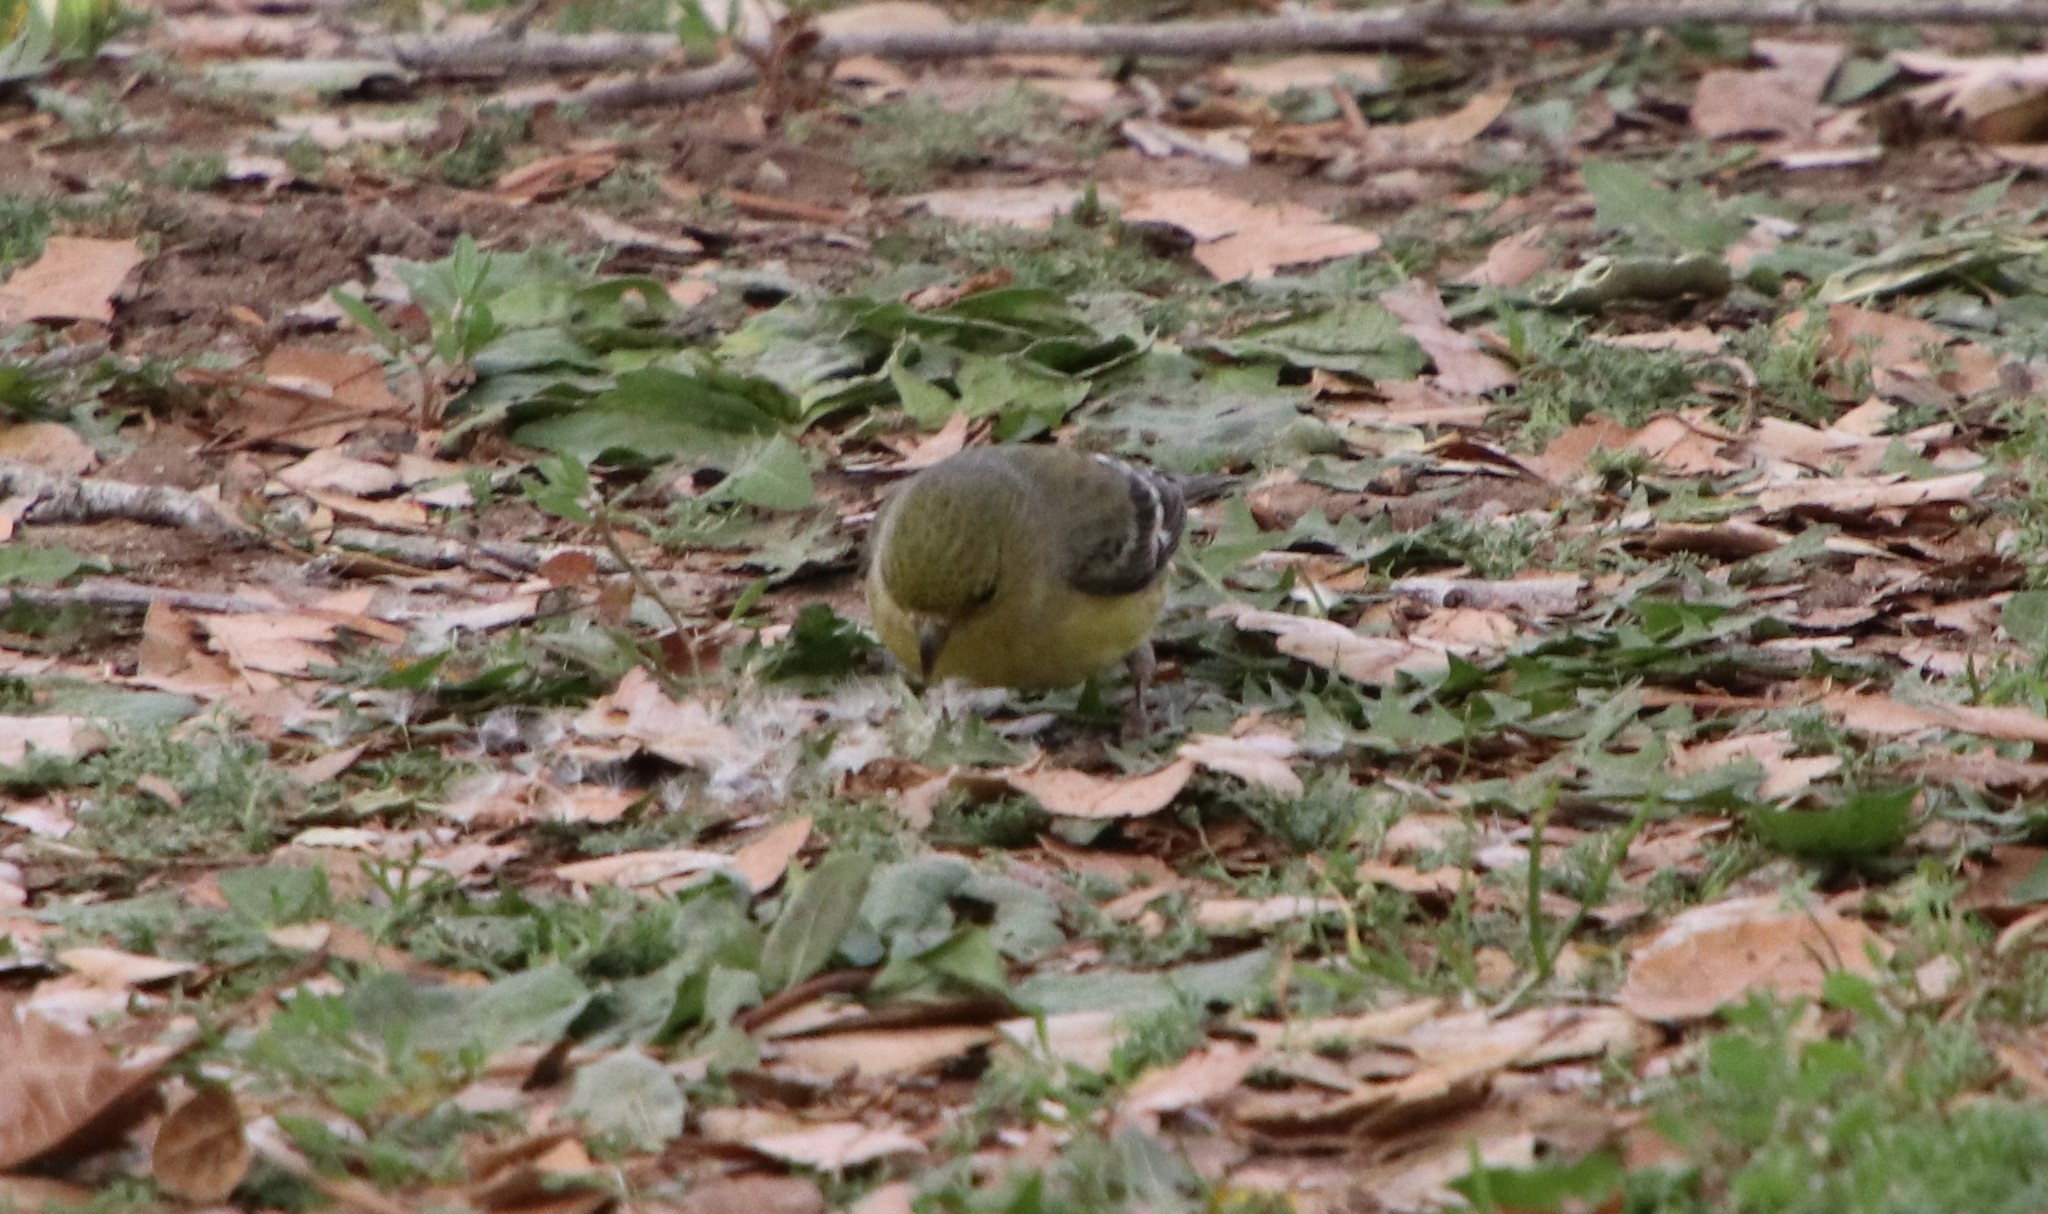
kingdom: Animalia
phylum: Chordata
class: Aves
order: Passeriformes
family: Fringillidae
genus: Spinus
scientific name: Spinus psaltria
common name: Lesser goldfinch
